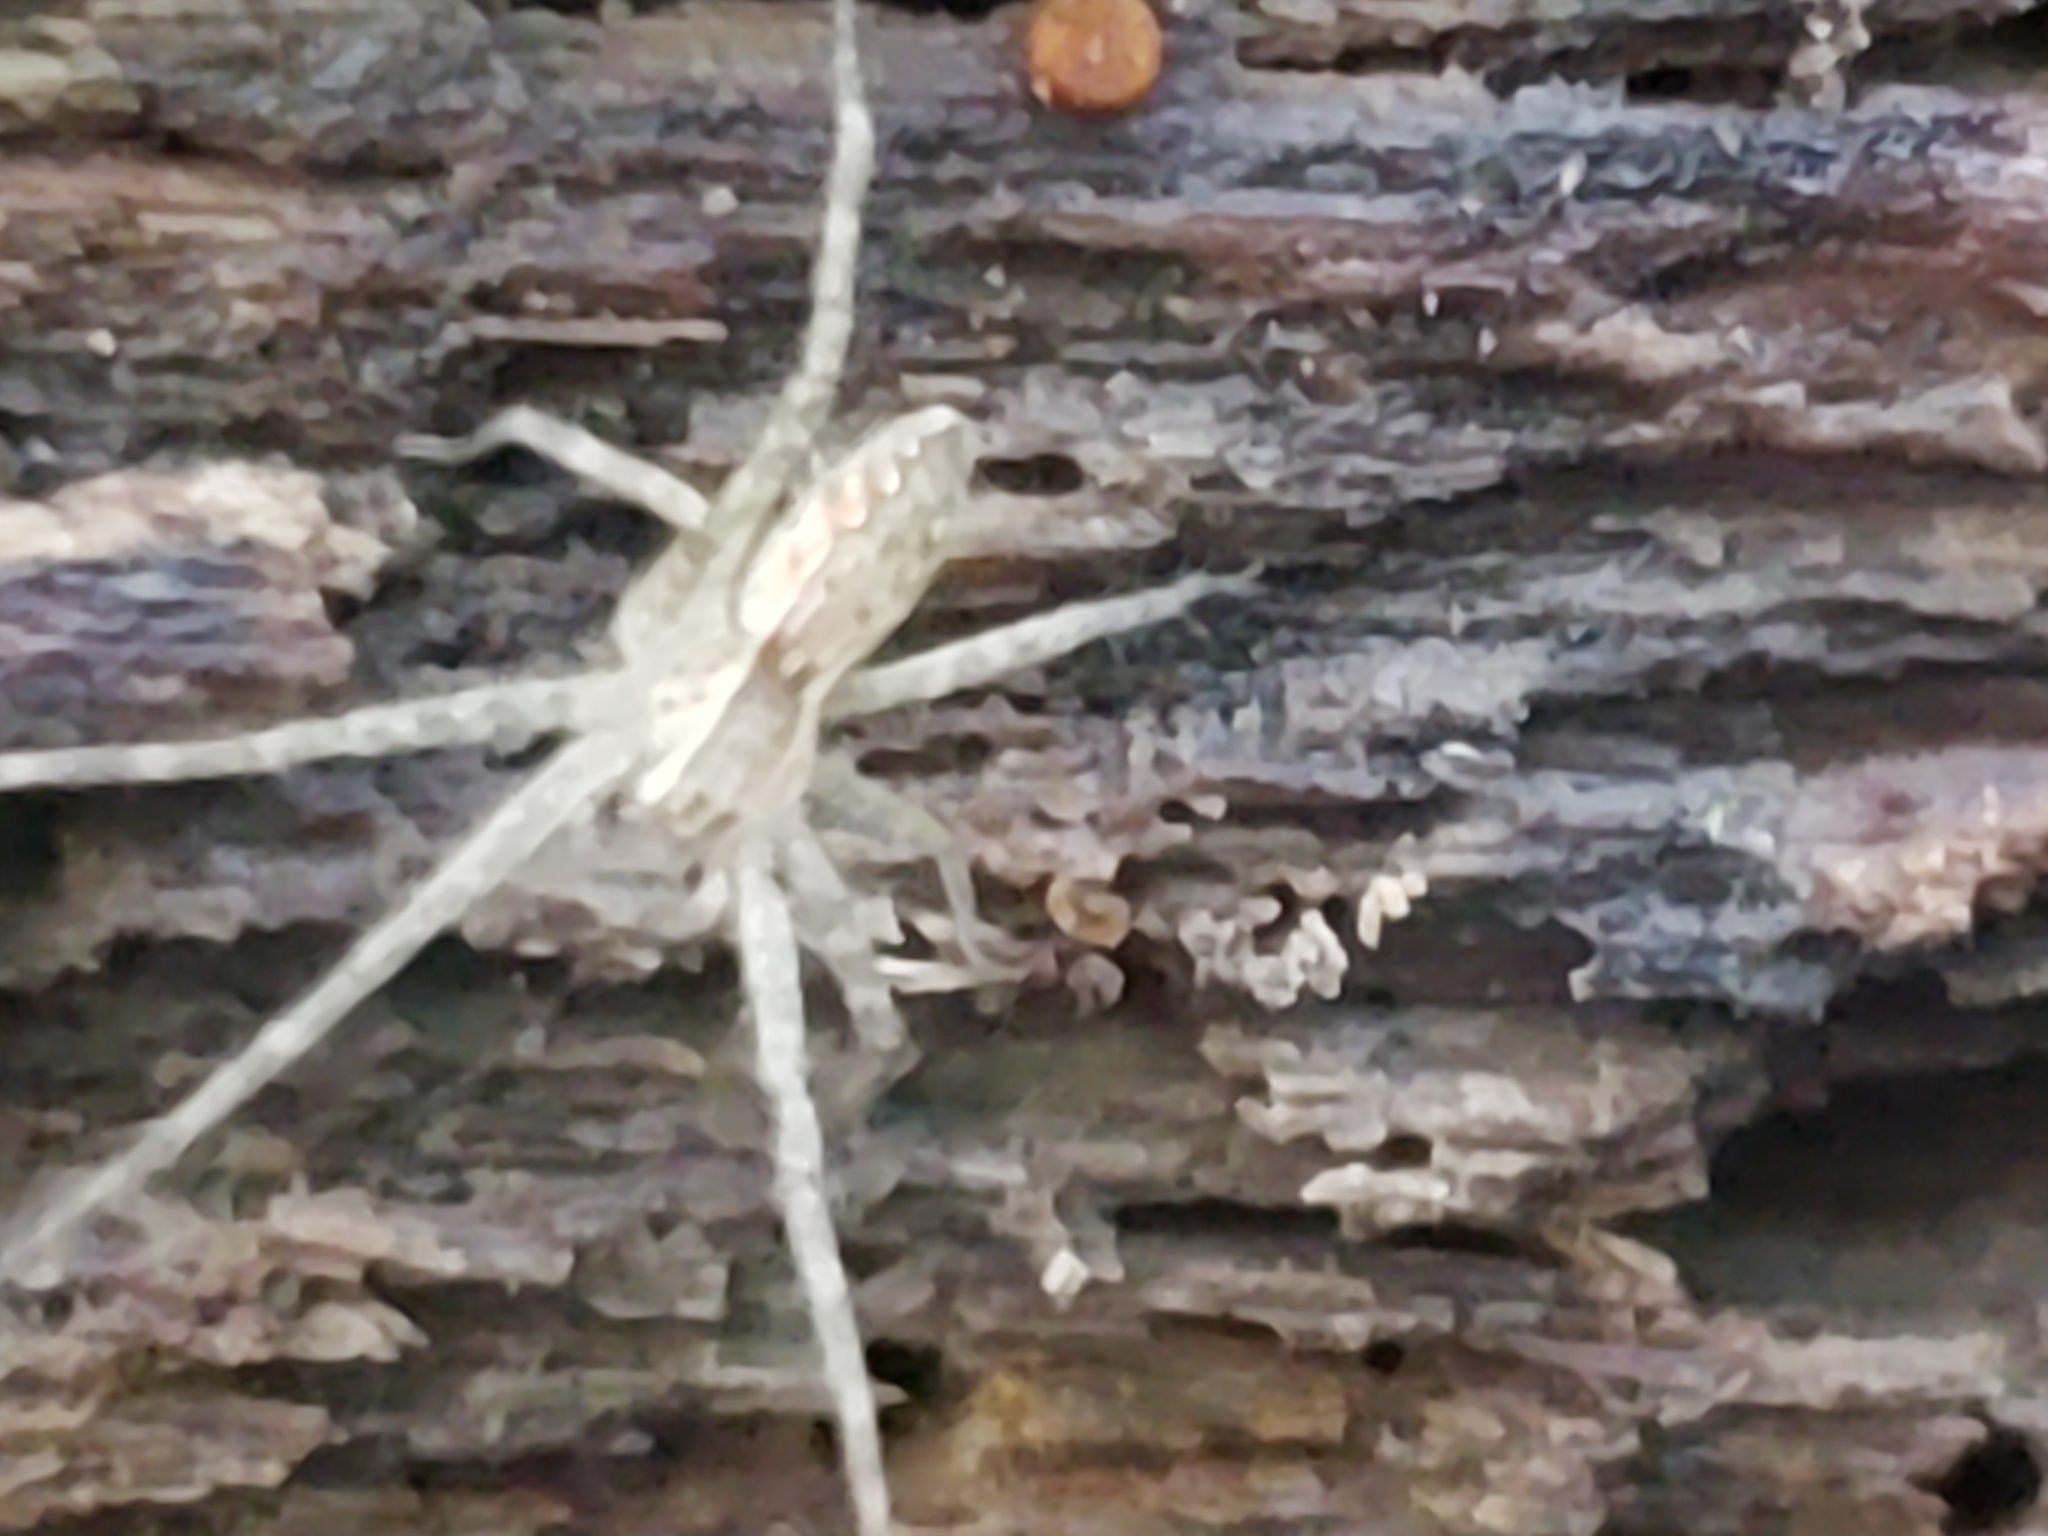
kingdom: Animalia
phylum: Arthropoda
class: Arachnida
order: Araneae
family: Pisauridae
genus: Pisaurina
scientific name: Pisaurina mira
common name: American nursery web spider
